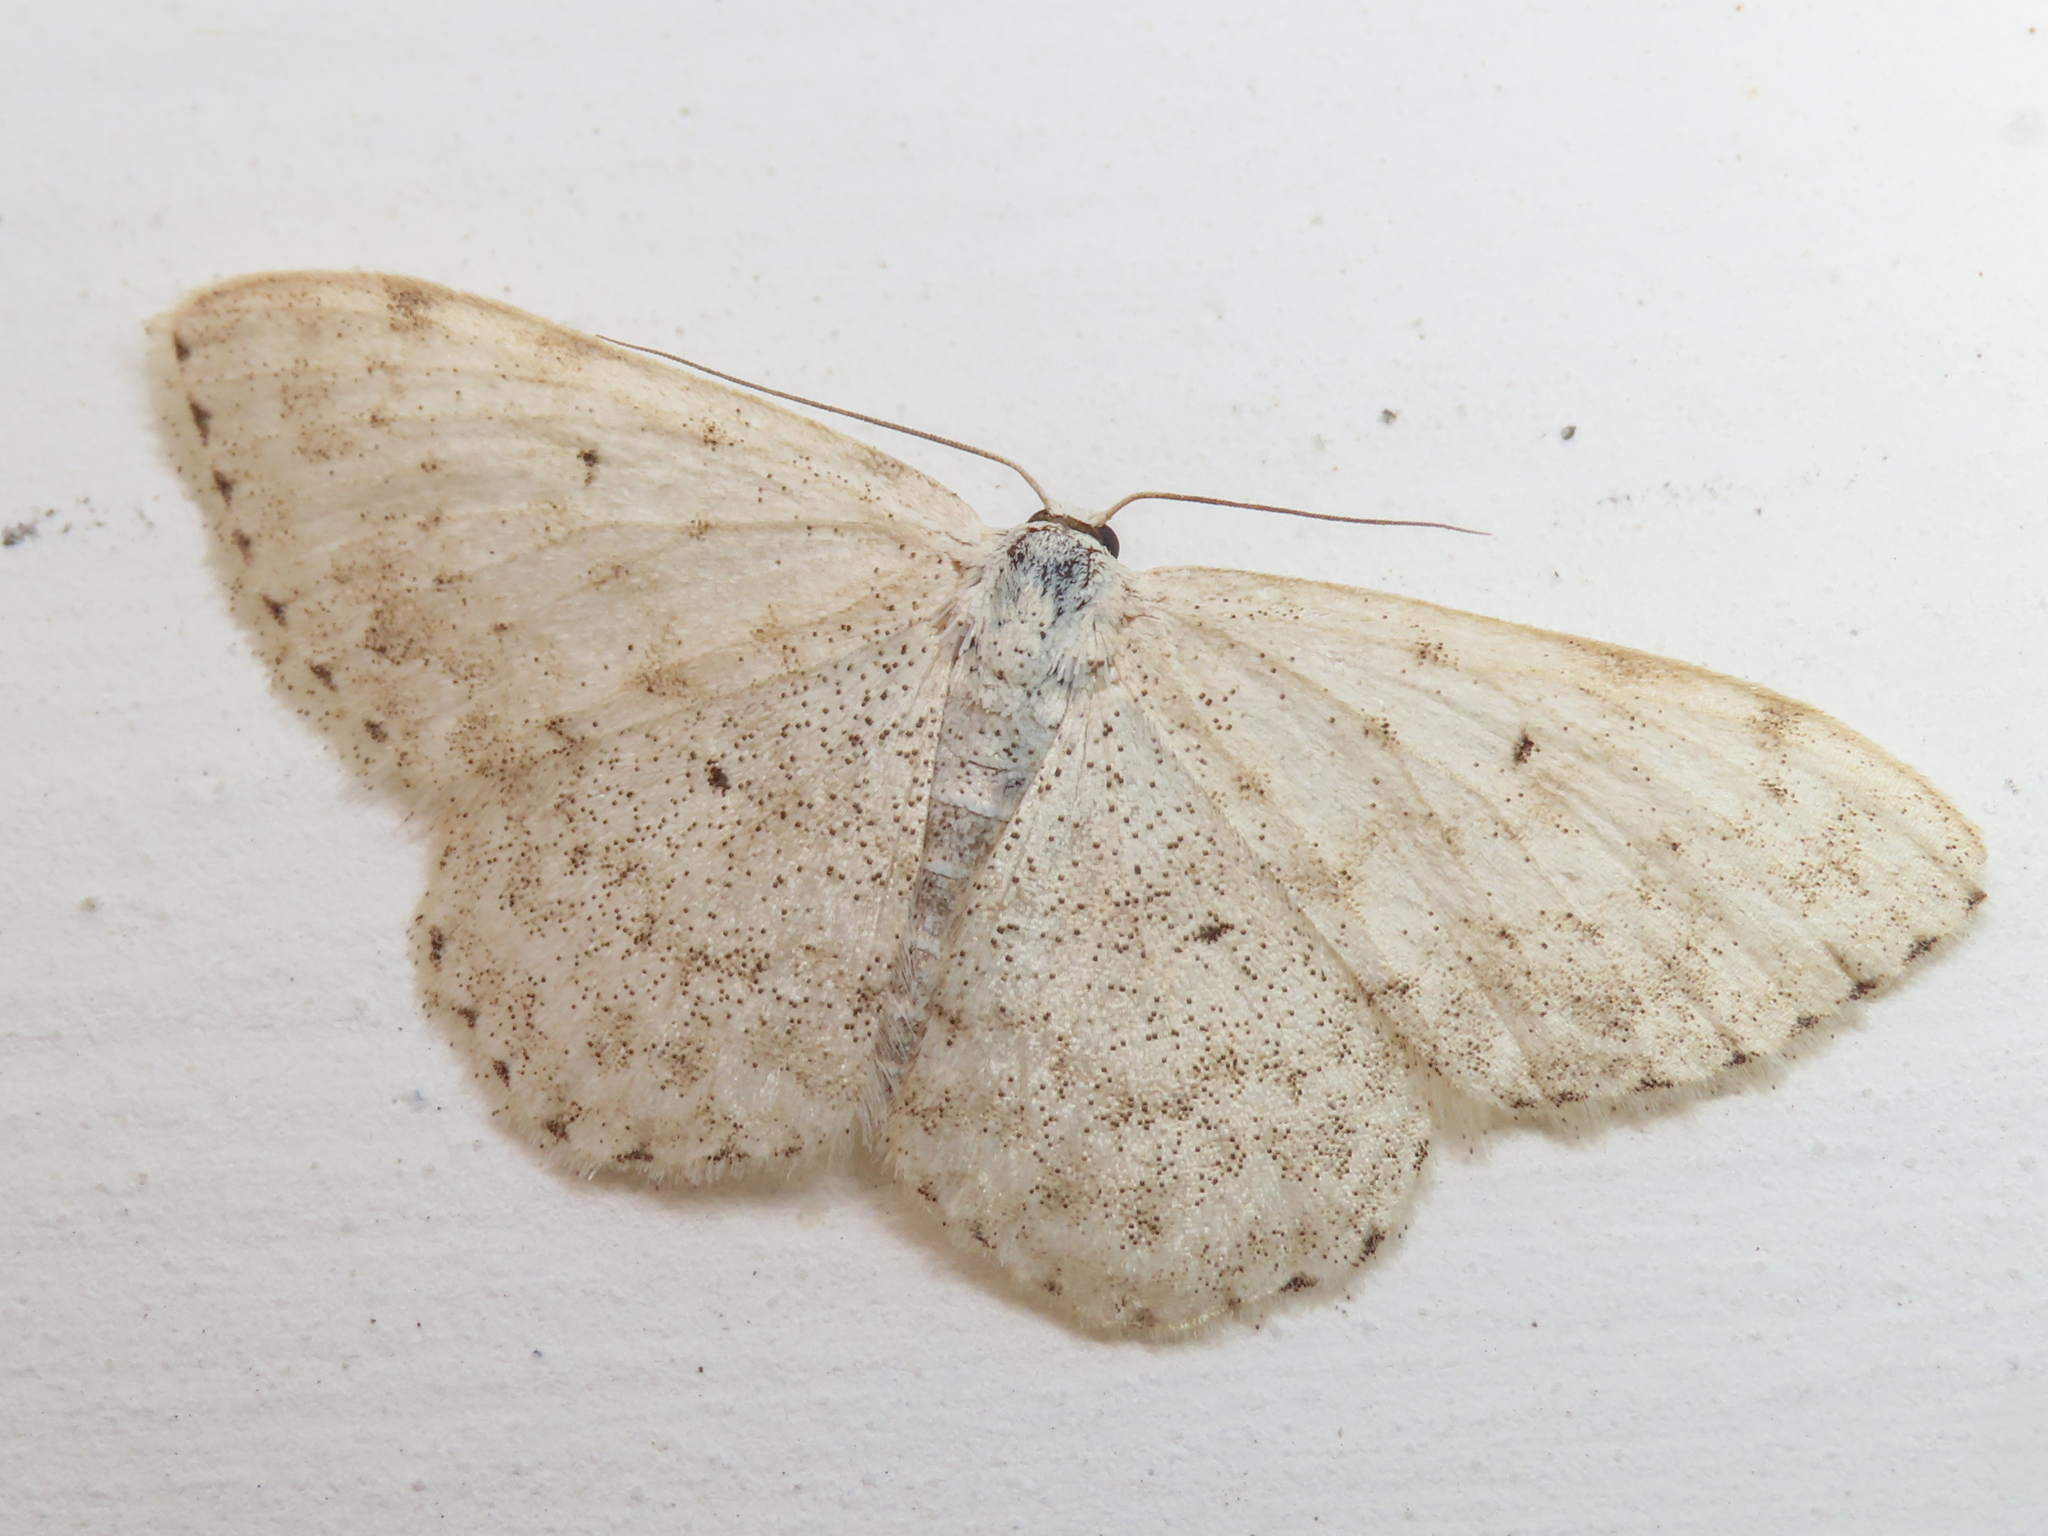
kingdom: Animalia
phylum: Arthropoda
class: Insecta
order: Lepidoptera
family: Geometridae
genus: Scopula
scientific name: Scopula marginepunctata
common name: Mullein wave
